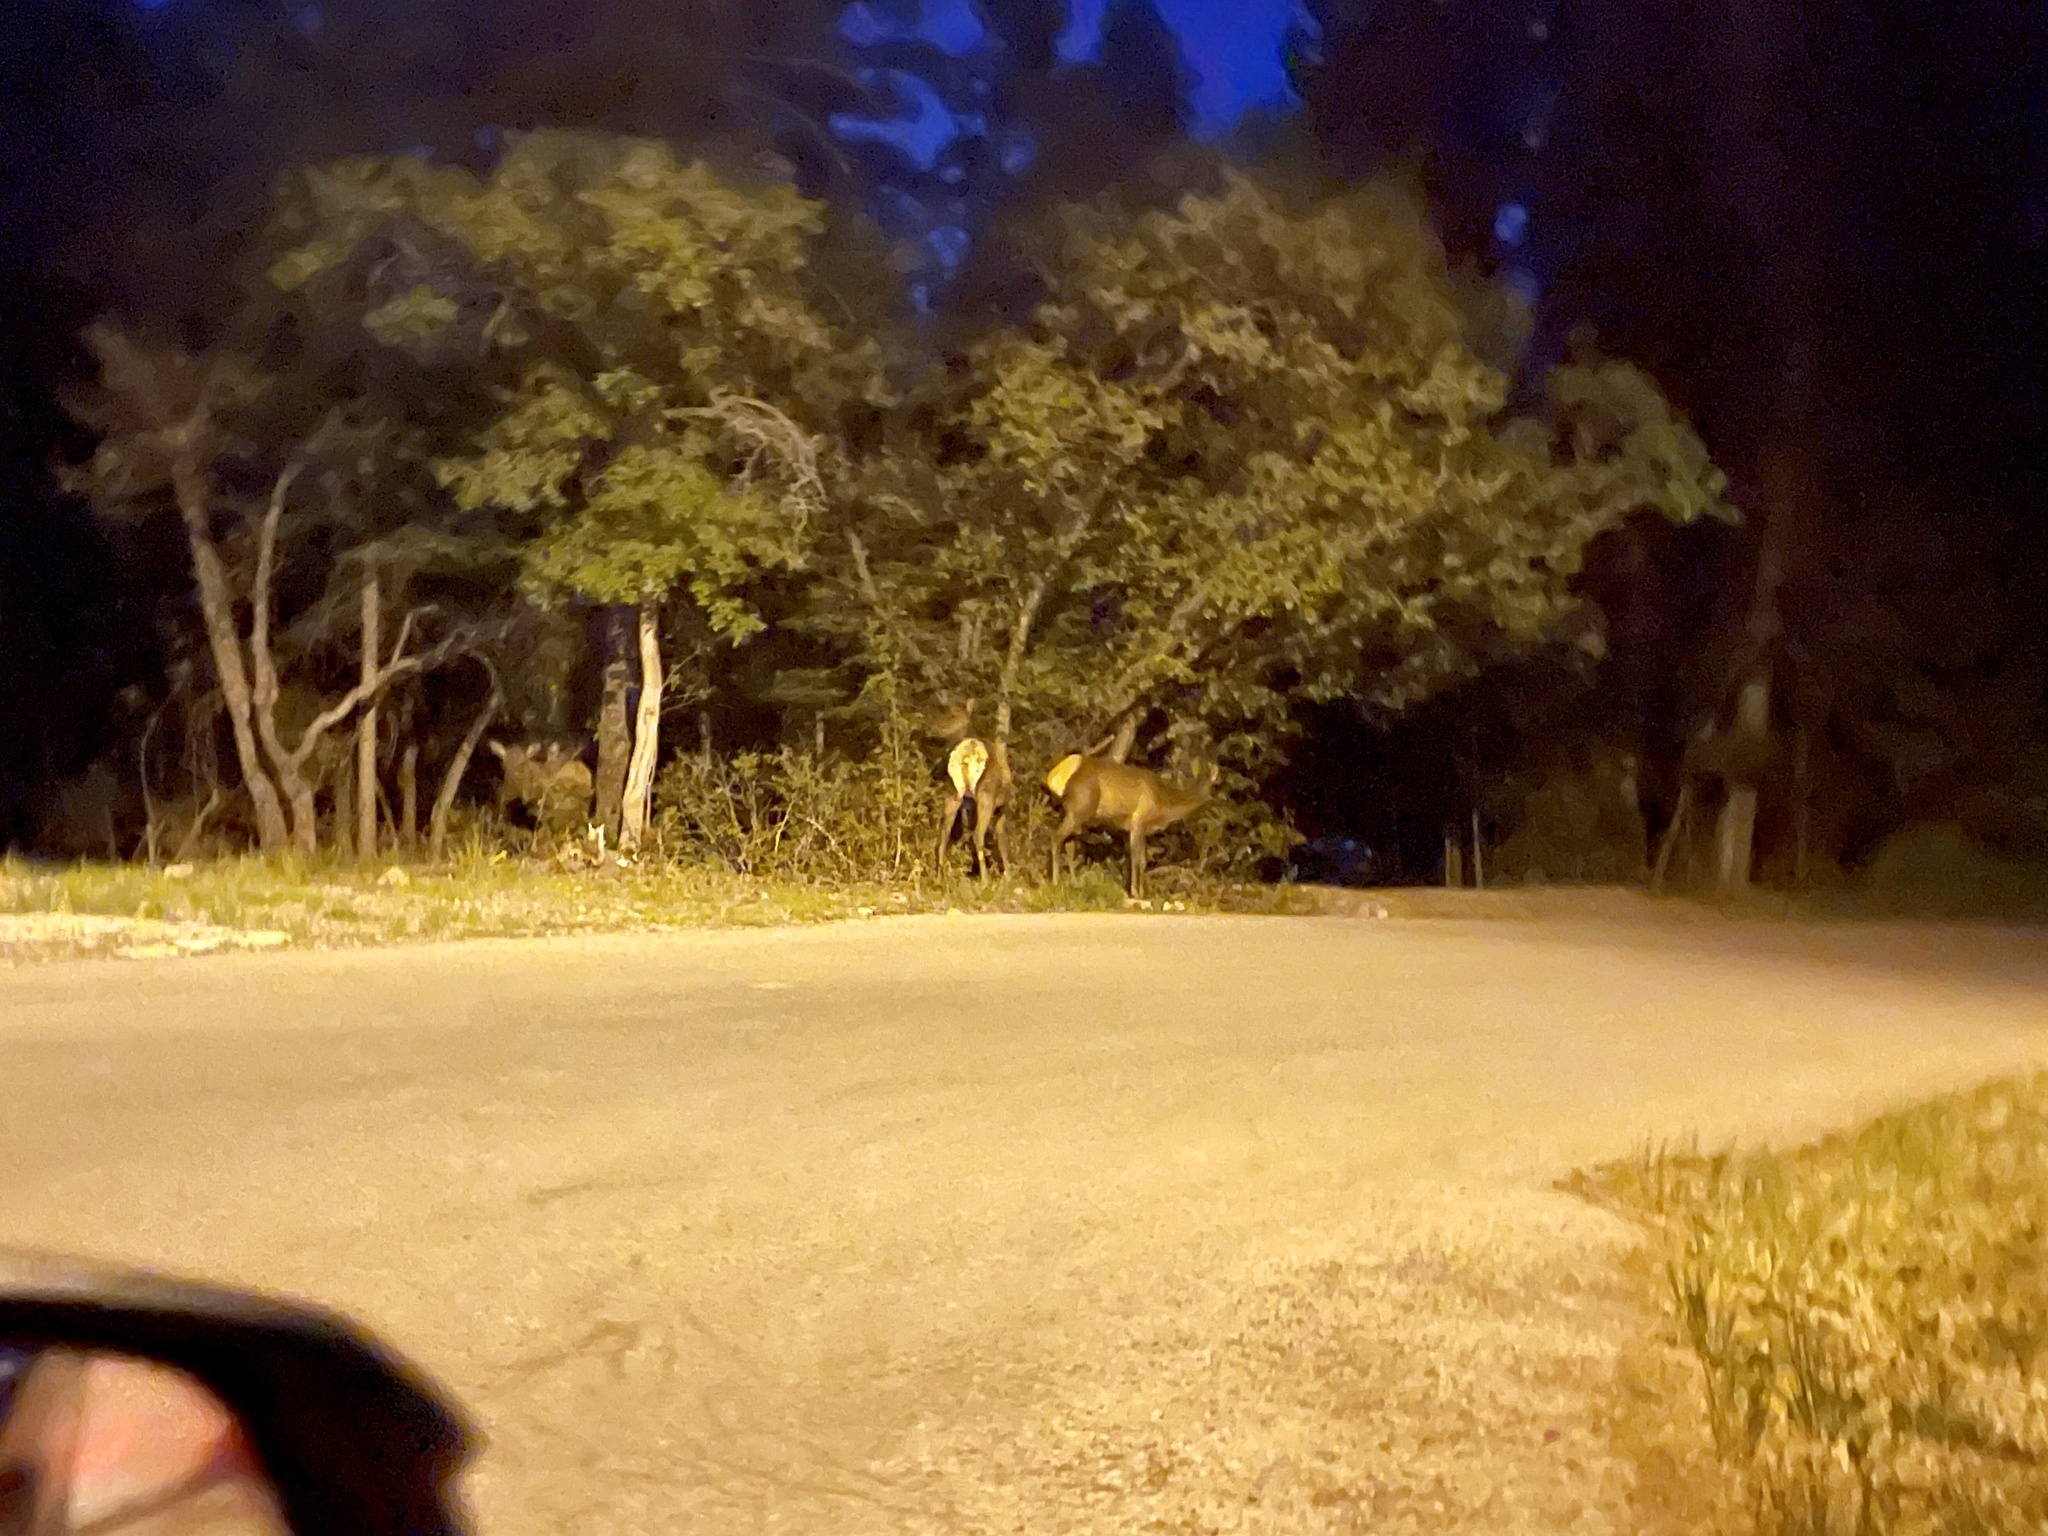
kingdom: Animalia
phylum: Chordata
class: Mammalia
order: Artiodactyla
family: Cervidae
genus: Cervus
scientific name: Cervus elaphus
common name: Red deer
